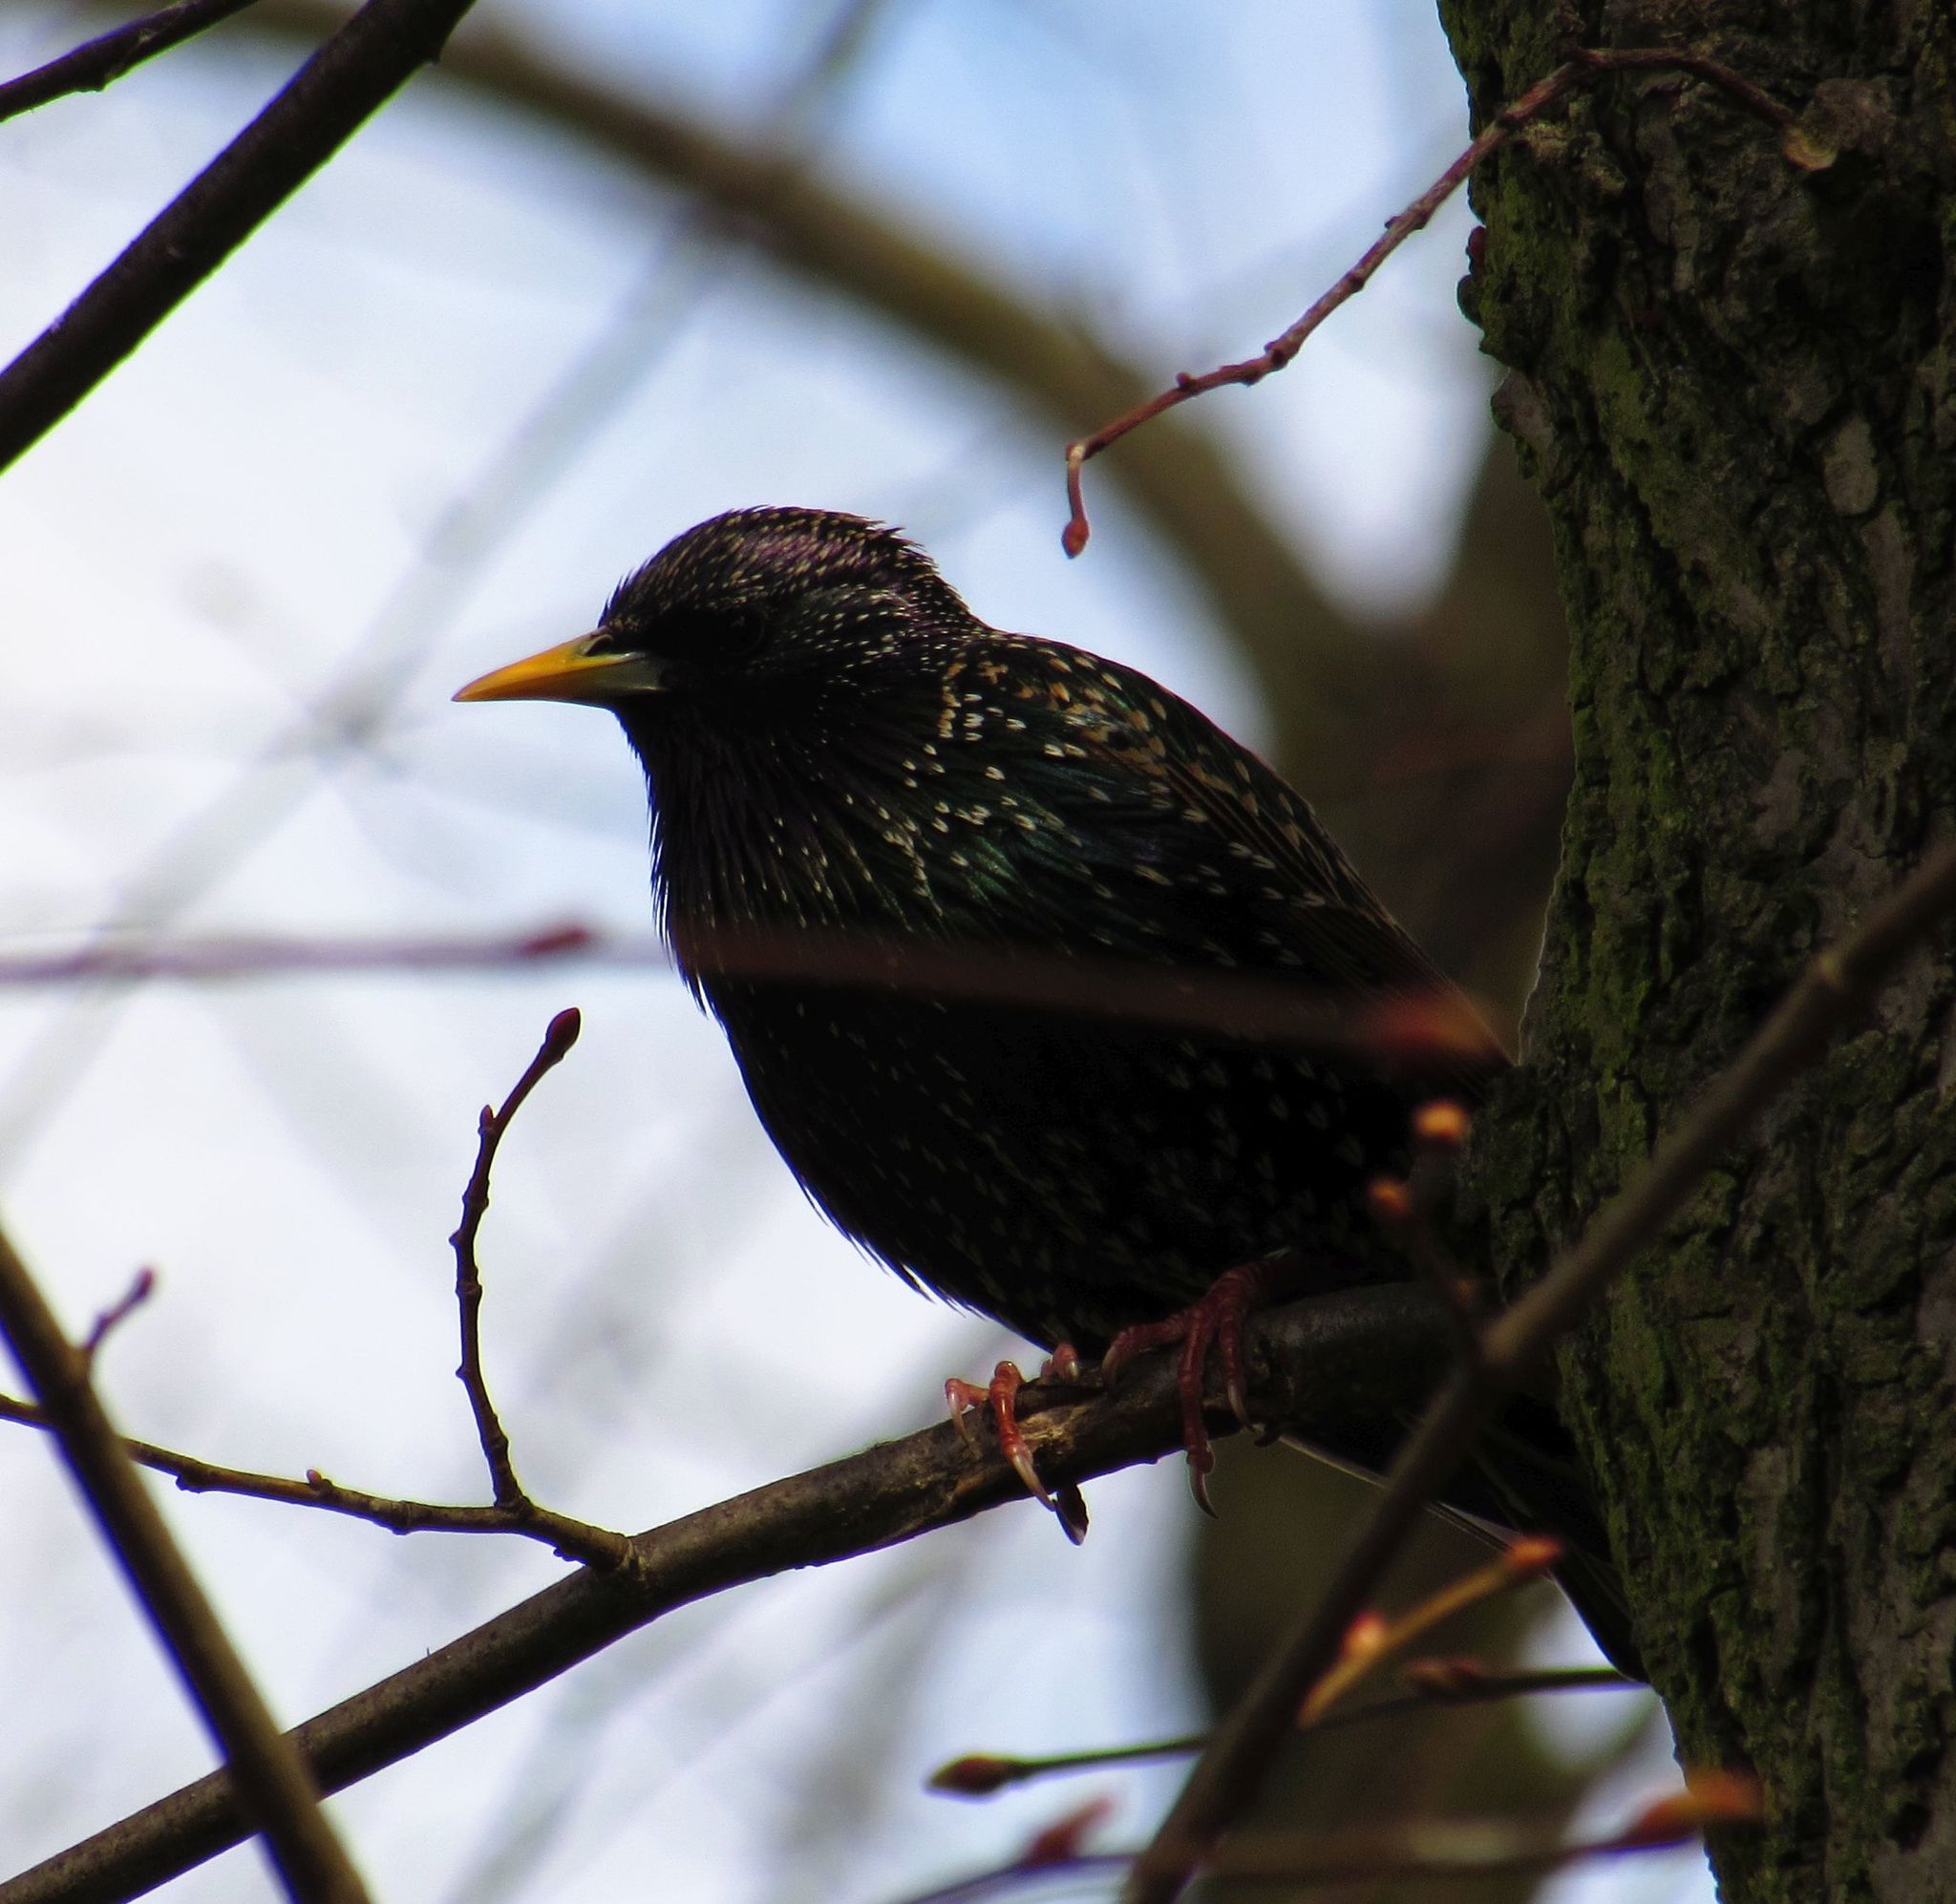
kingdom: Animalia
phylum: Chordata
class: Aves
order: Passeriformes
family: Sturnidae
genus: Sturnus
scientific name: Sturnus vulgaris
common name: Common starling
